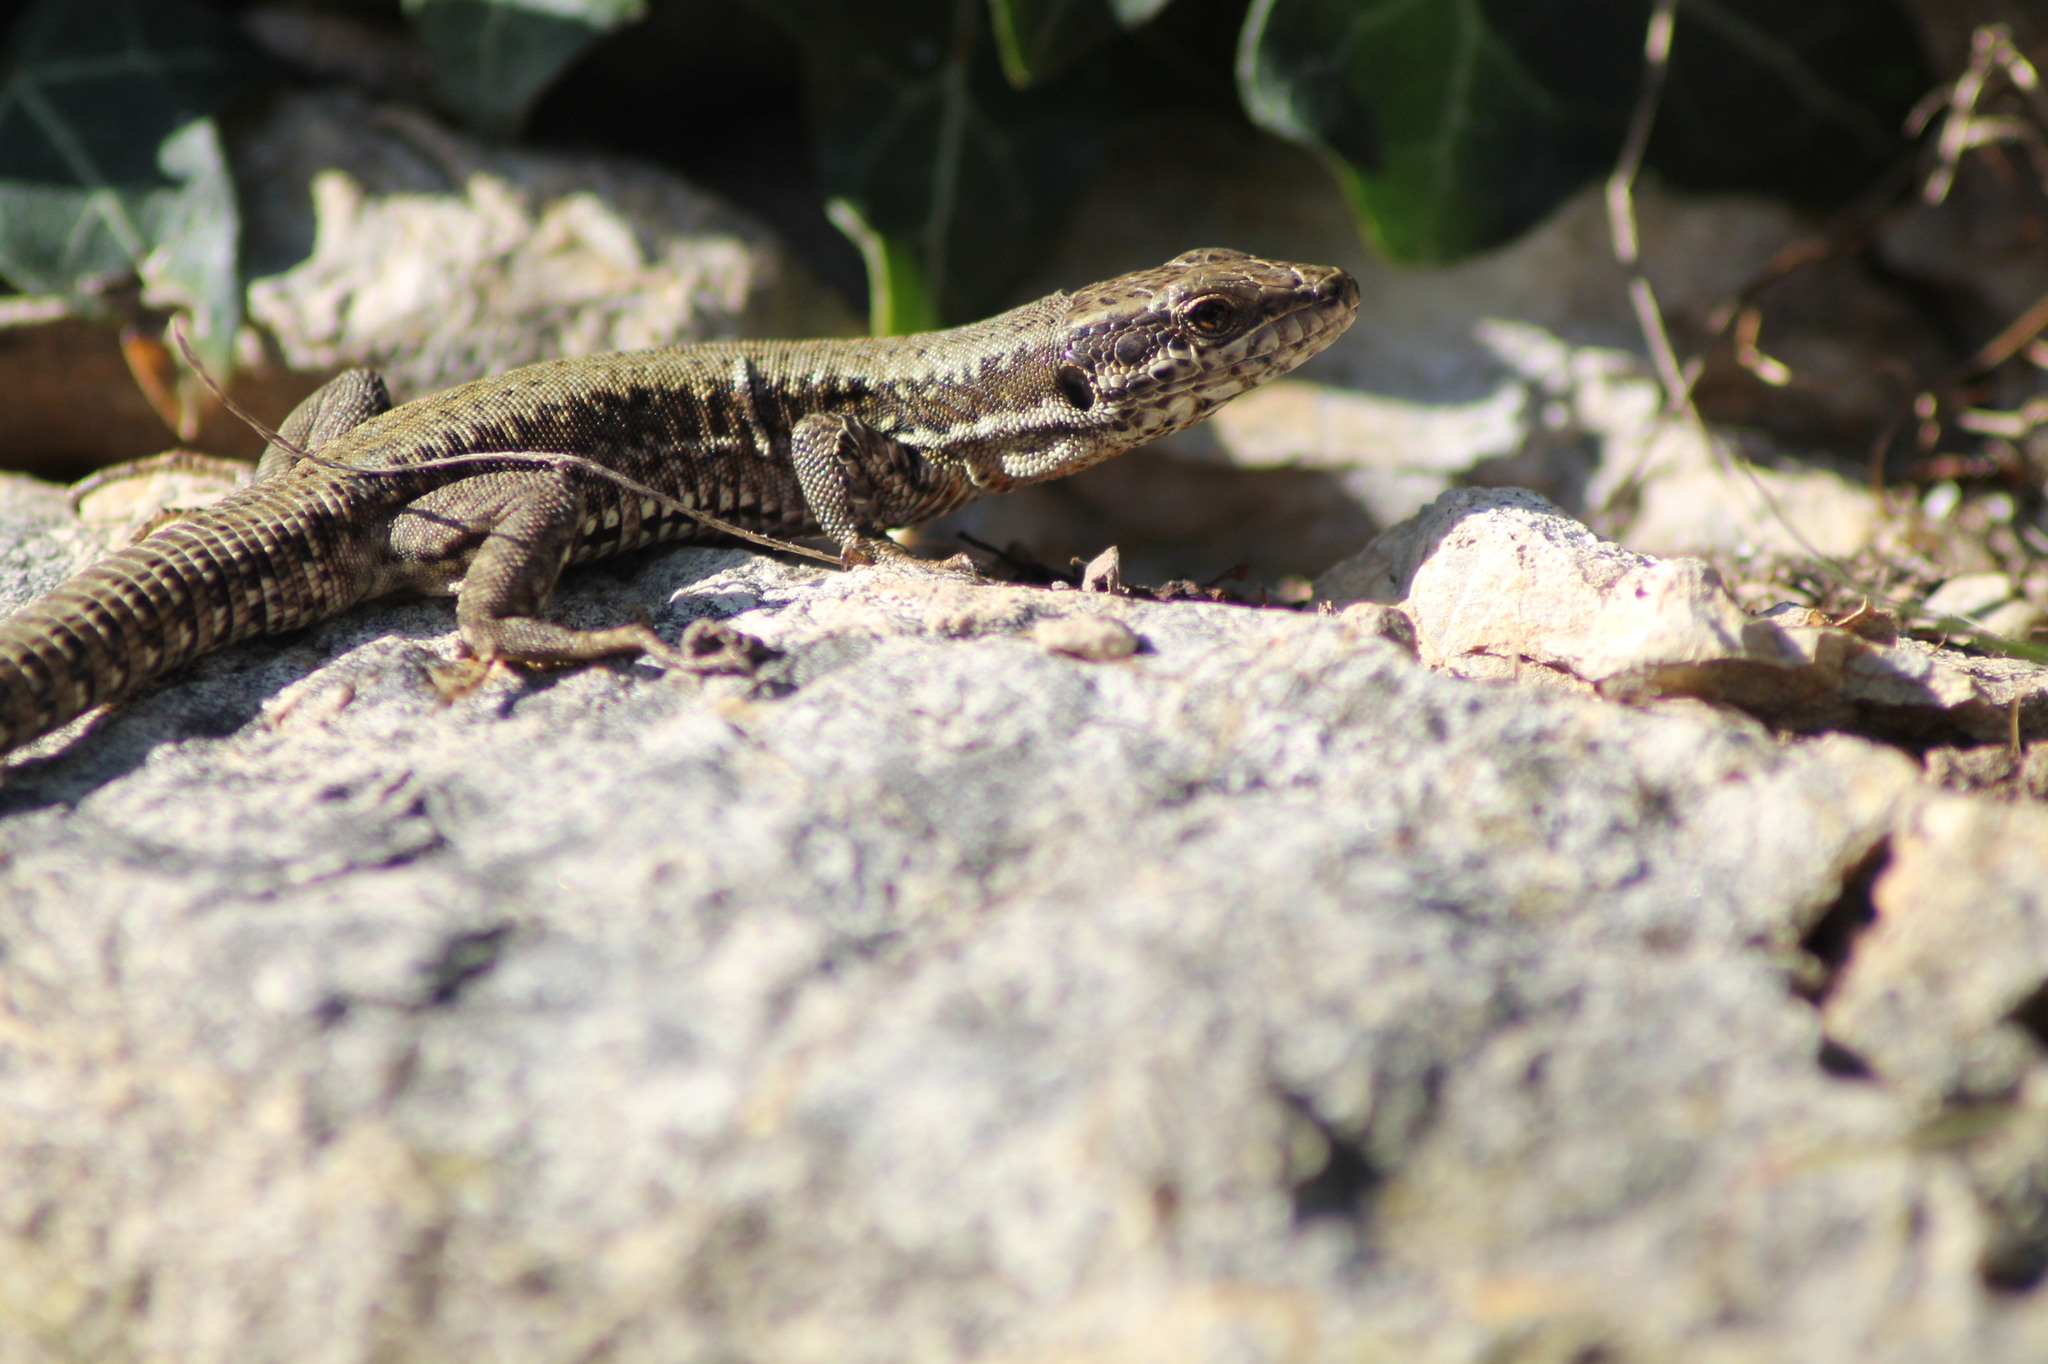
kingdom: Animalia
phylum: Chordata
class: Squamata
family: Lacertidae
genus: Podarcis
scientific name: Podarcis muralis
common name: Common wall lizard
